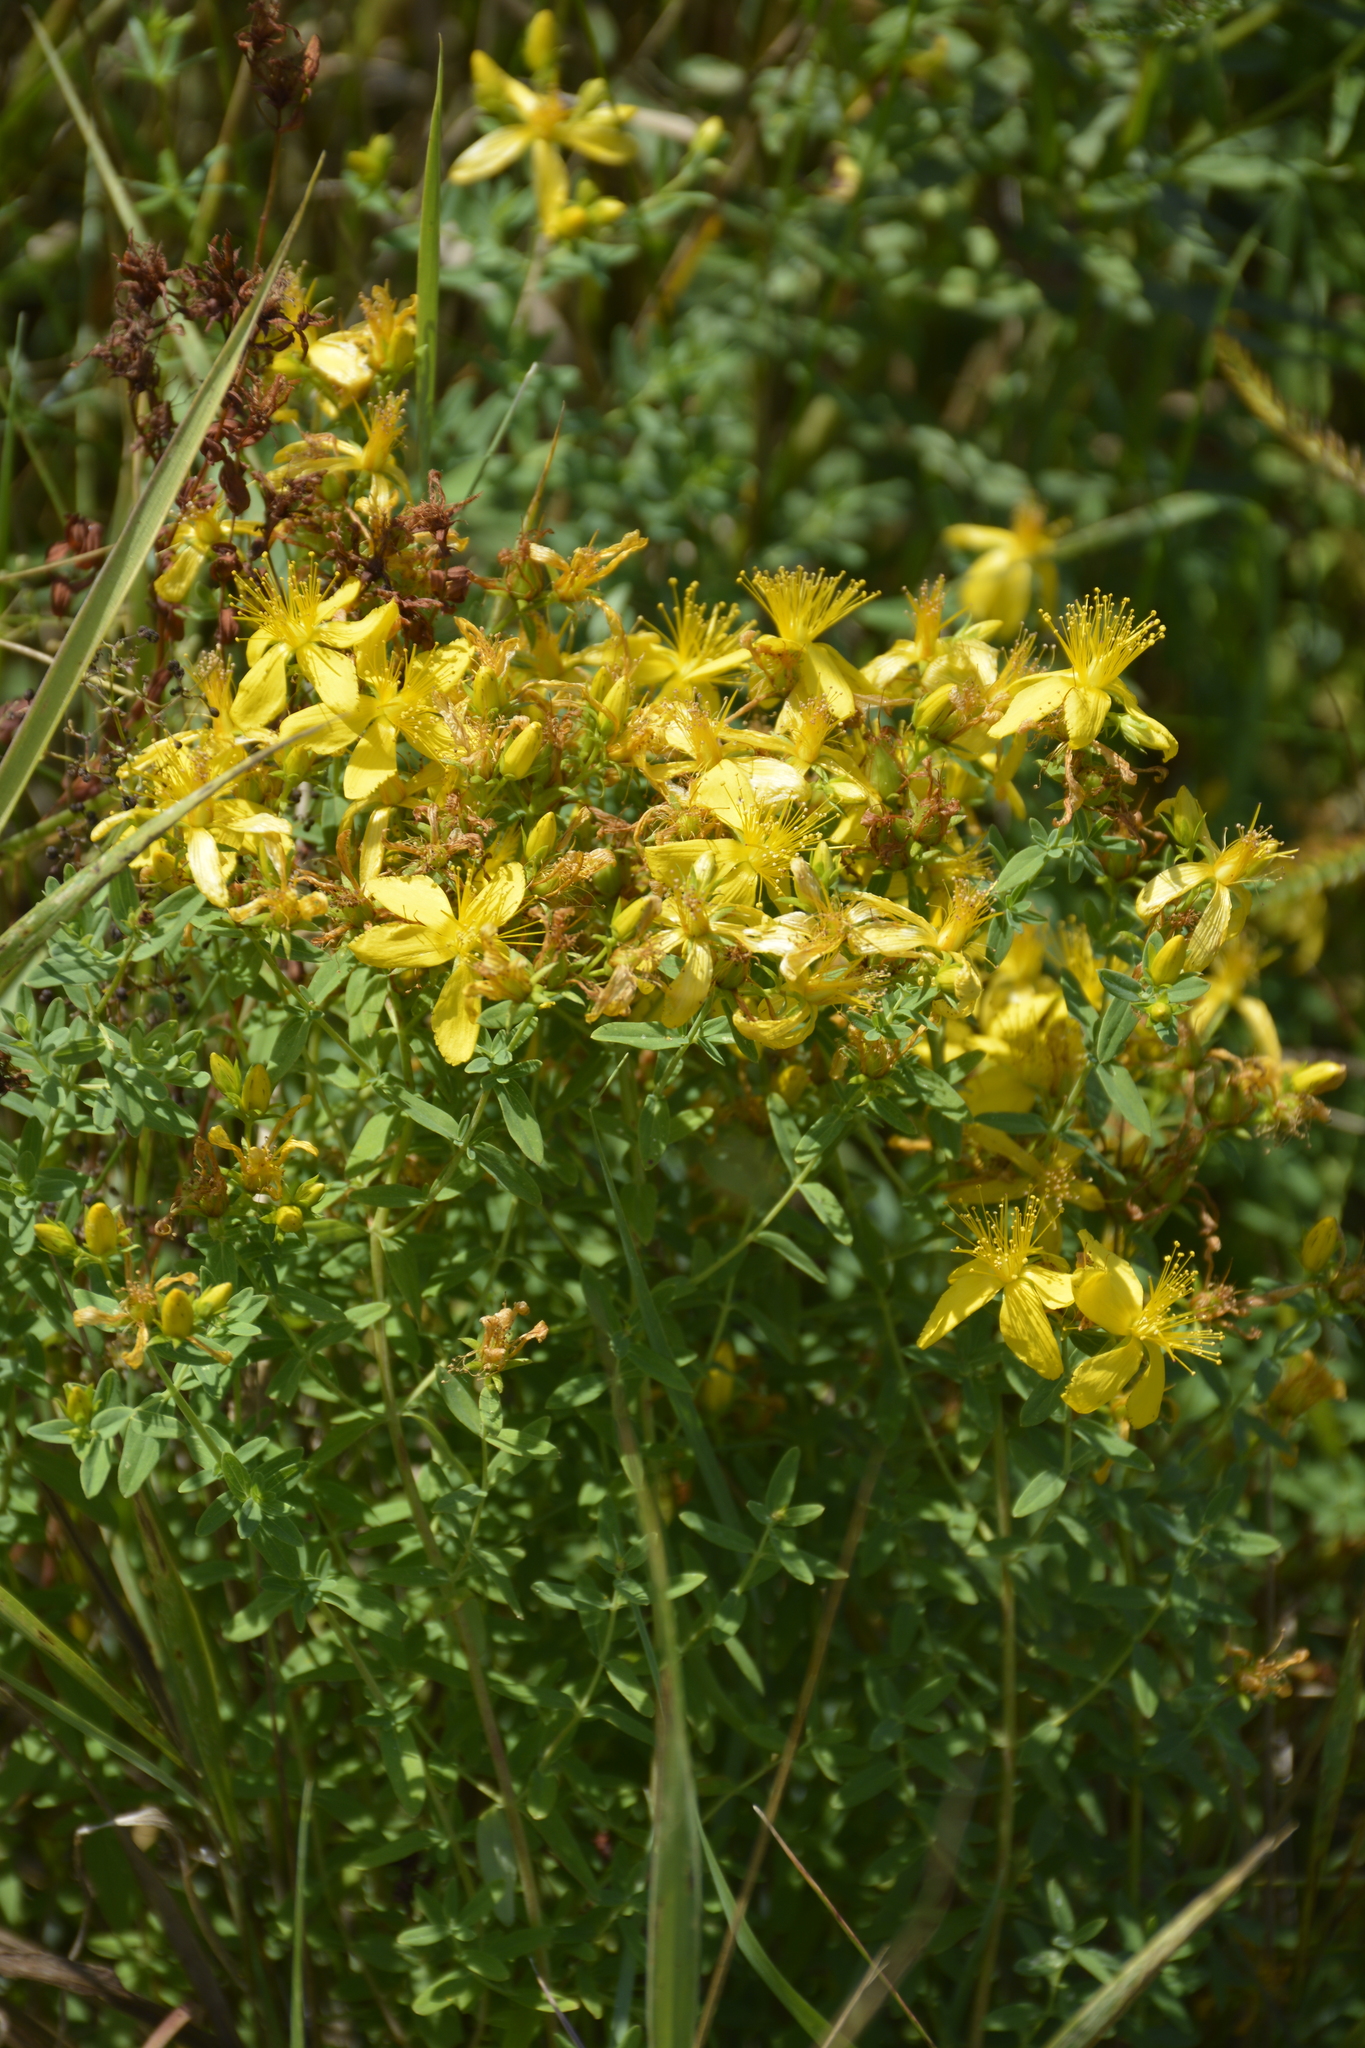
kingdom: Plantae
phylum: Tracheophyta
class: Magnoliopsida
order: Malpighiales
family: Hypericaceae
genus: Hypericum
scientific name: Hypericum perforatum
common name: Common st. johnswort
